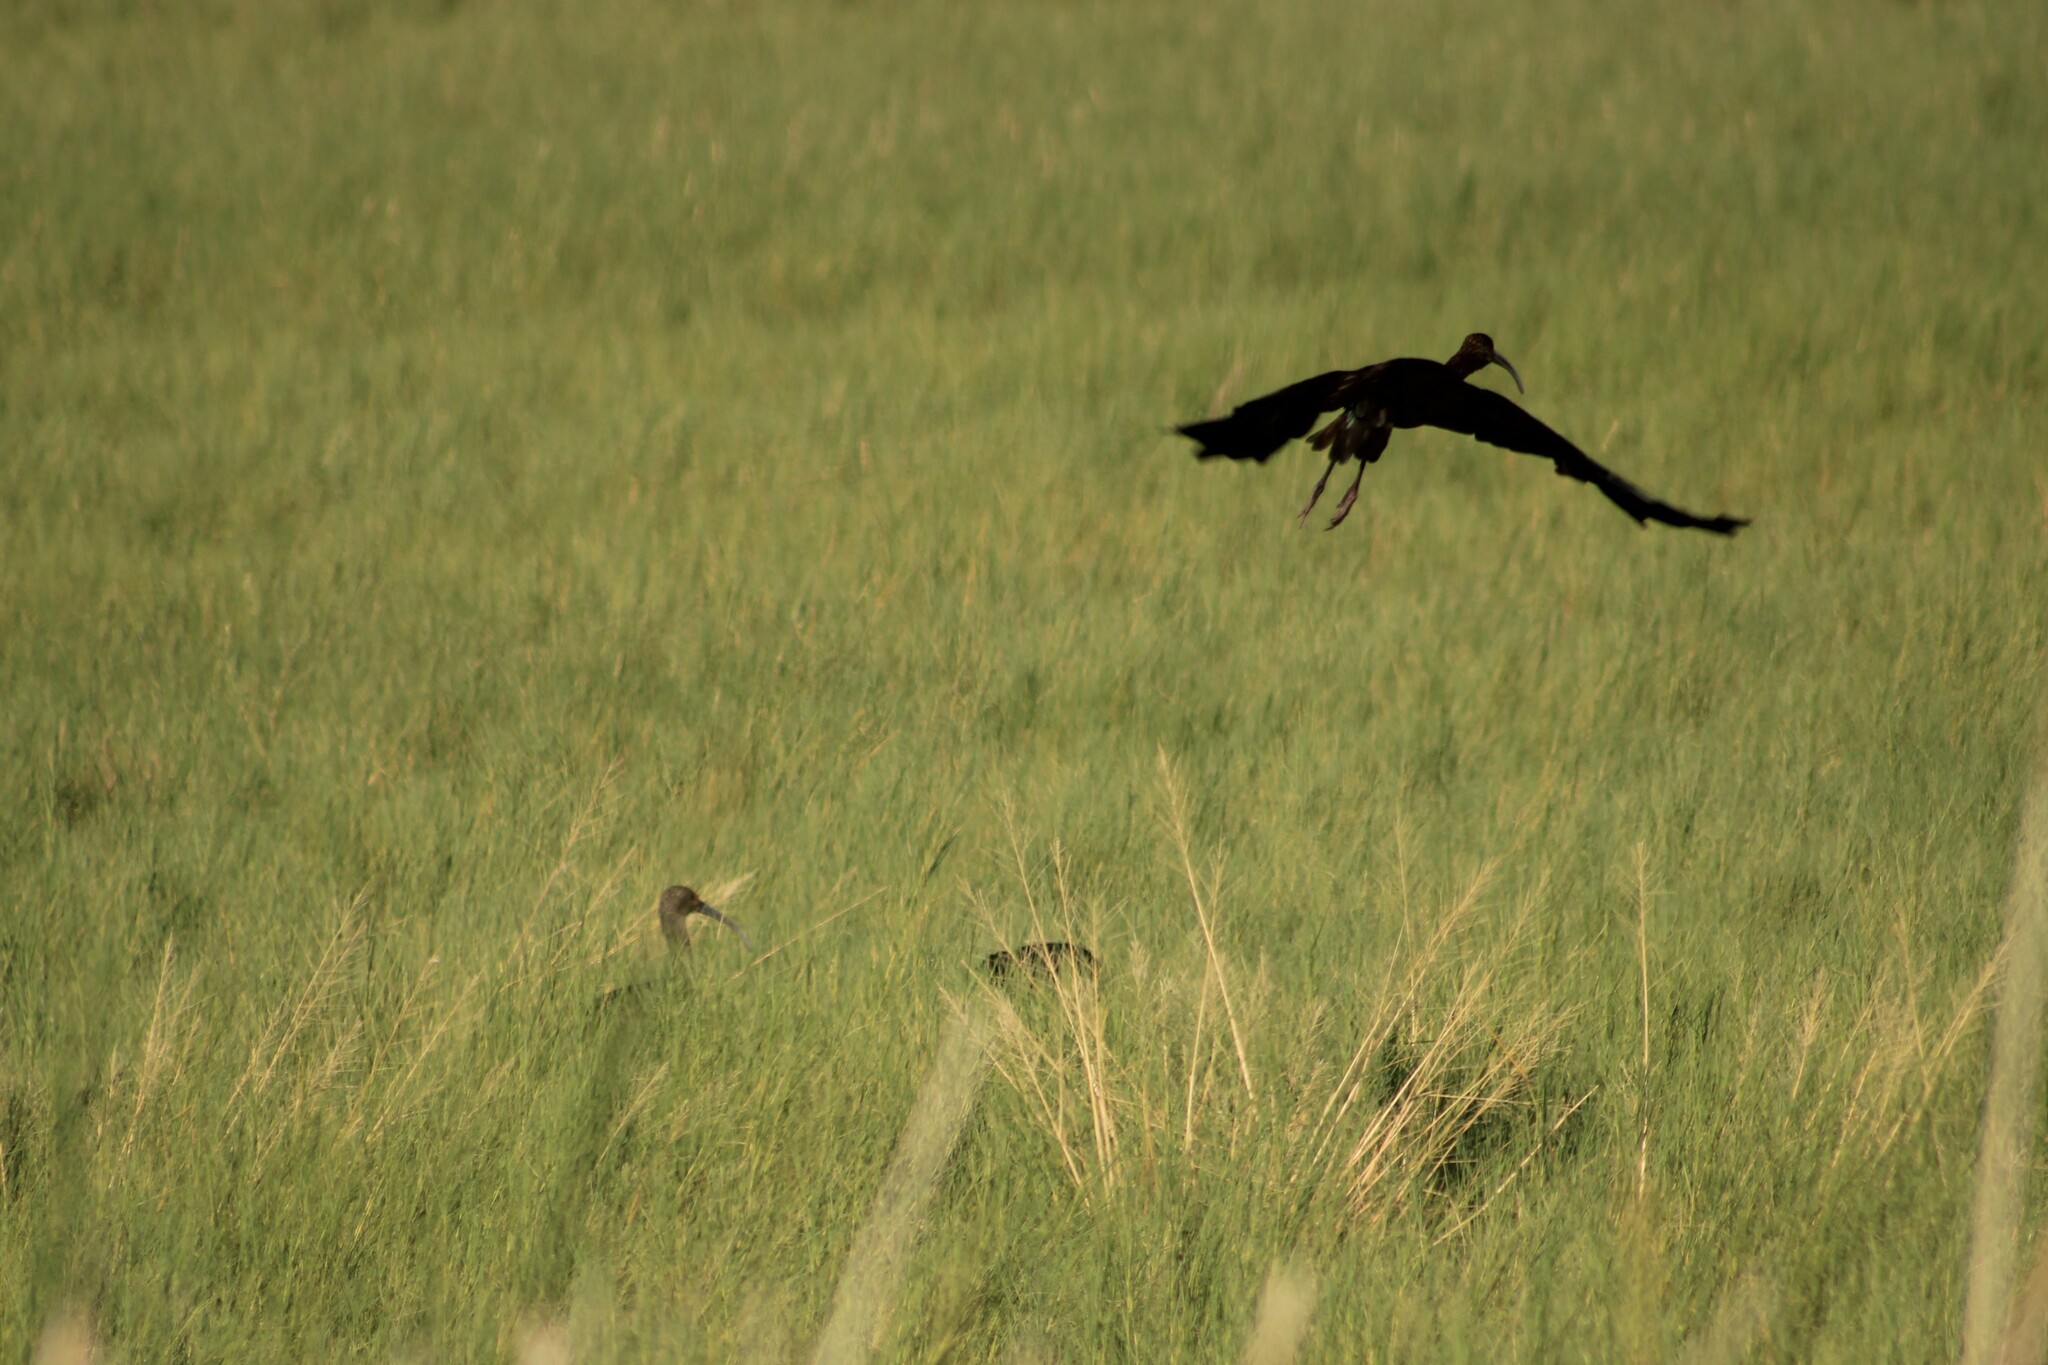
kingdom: Animalia
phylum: Chordata
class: Aves
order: Pelecaniformes
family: Threskiornithidae
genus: Plegadis
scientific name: Plegadis chihi
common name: White-faced ibis
